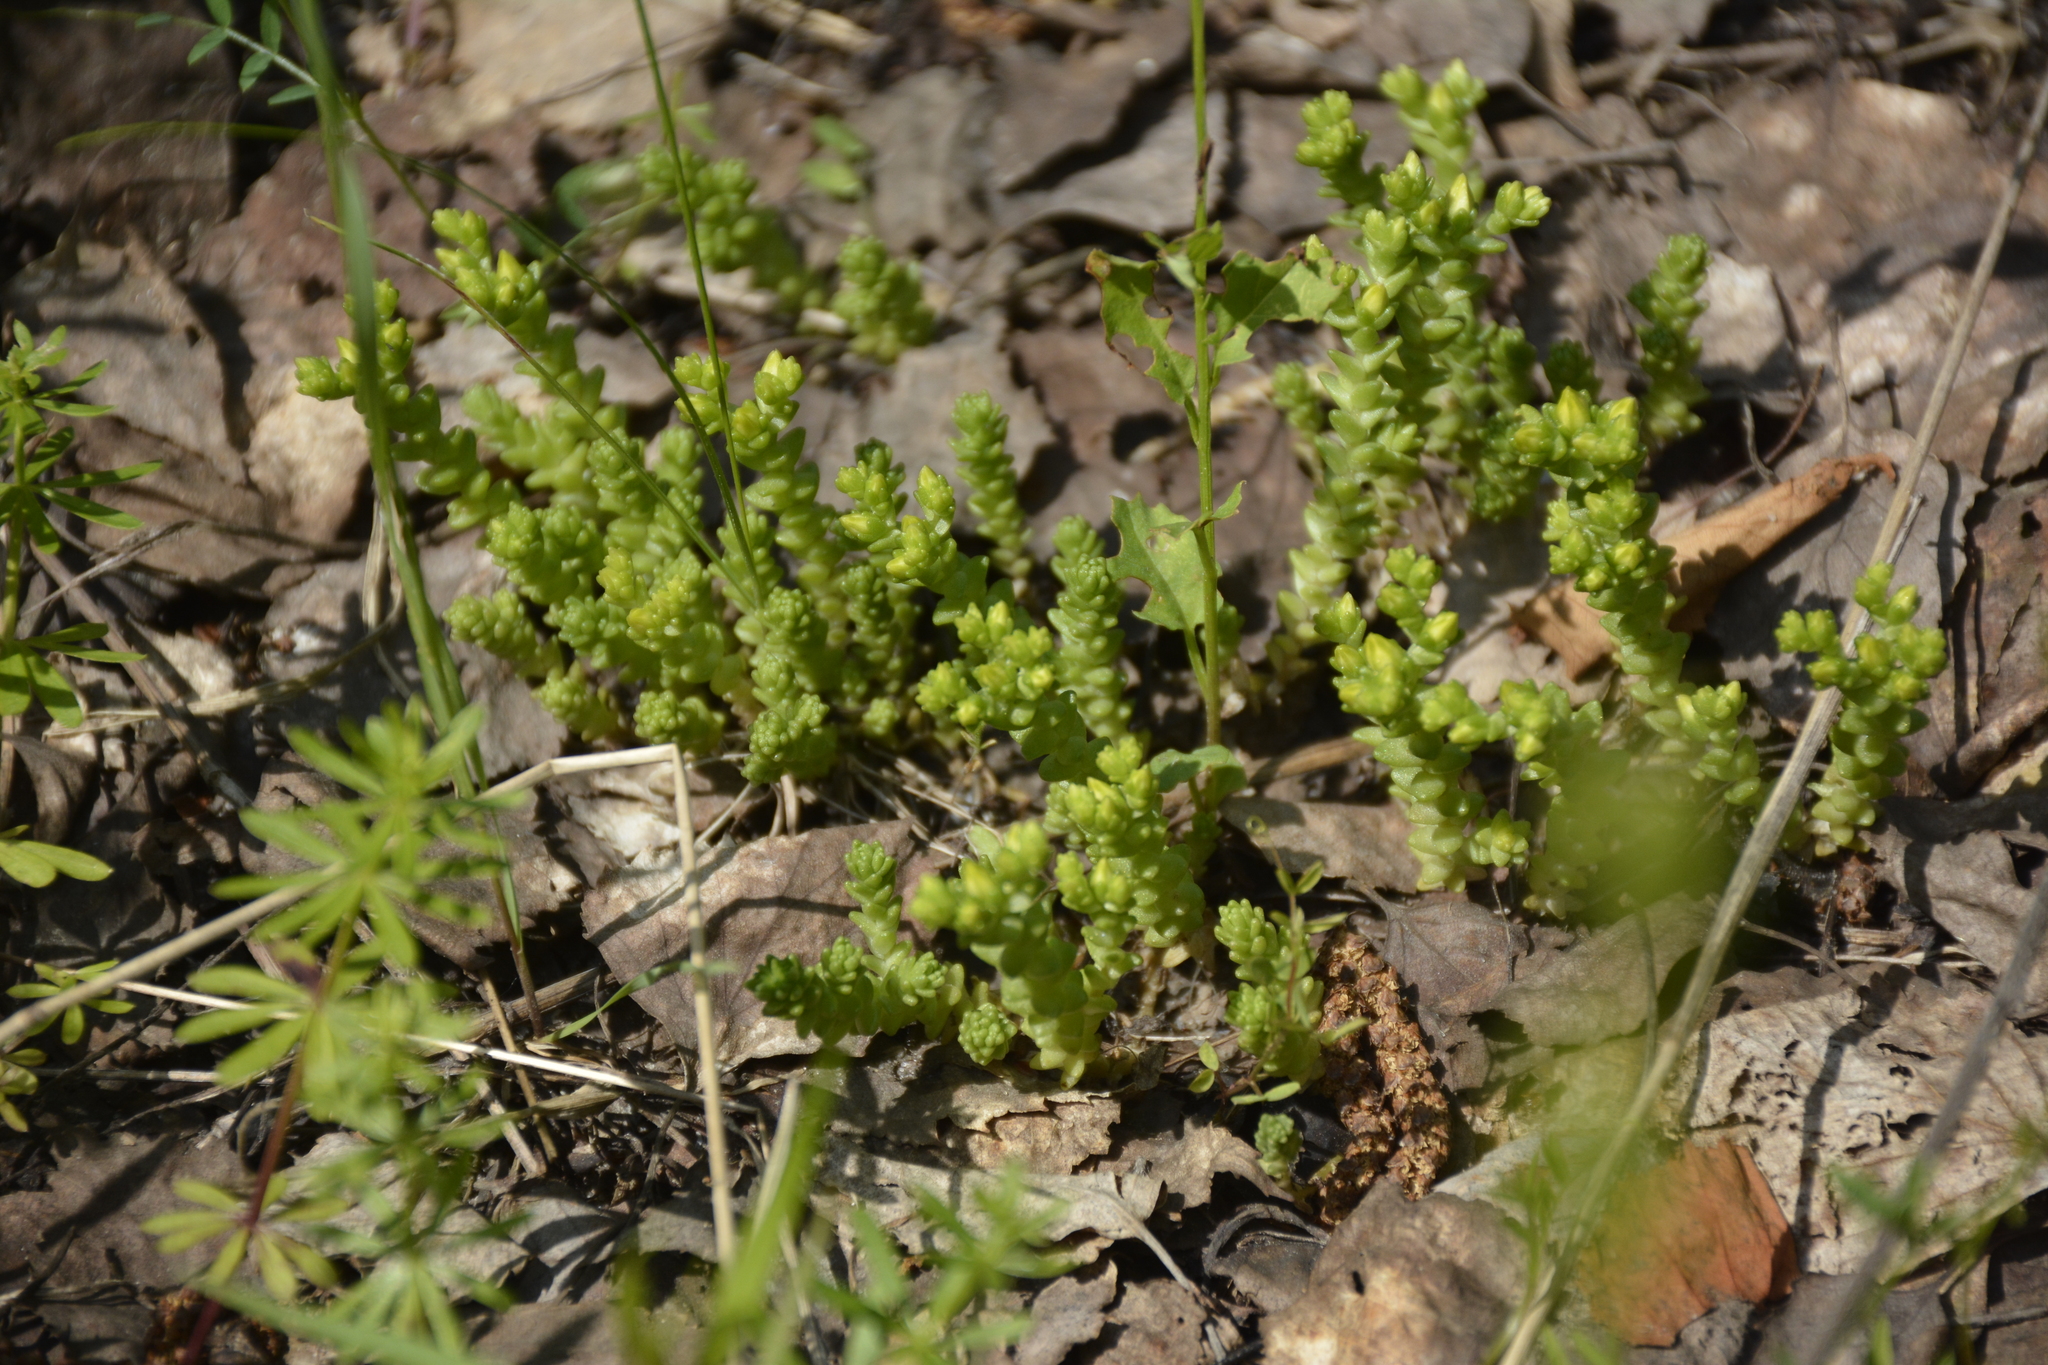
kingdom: Plantae
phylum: Tracheophyta
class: Magnoliopsida
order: Saxifragales
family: Crassulaceae
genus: Sedum
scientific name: Sedum acre
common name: Biting stonecrop
